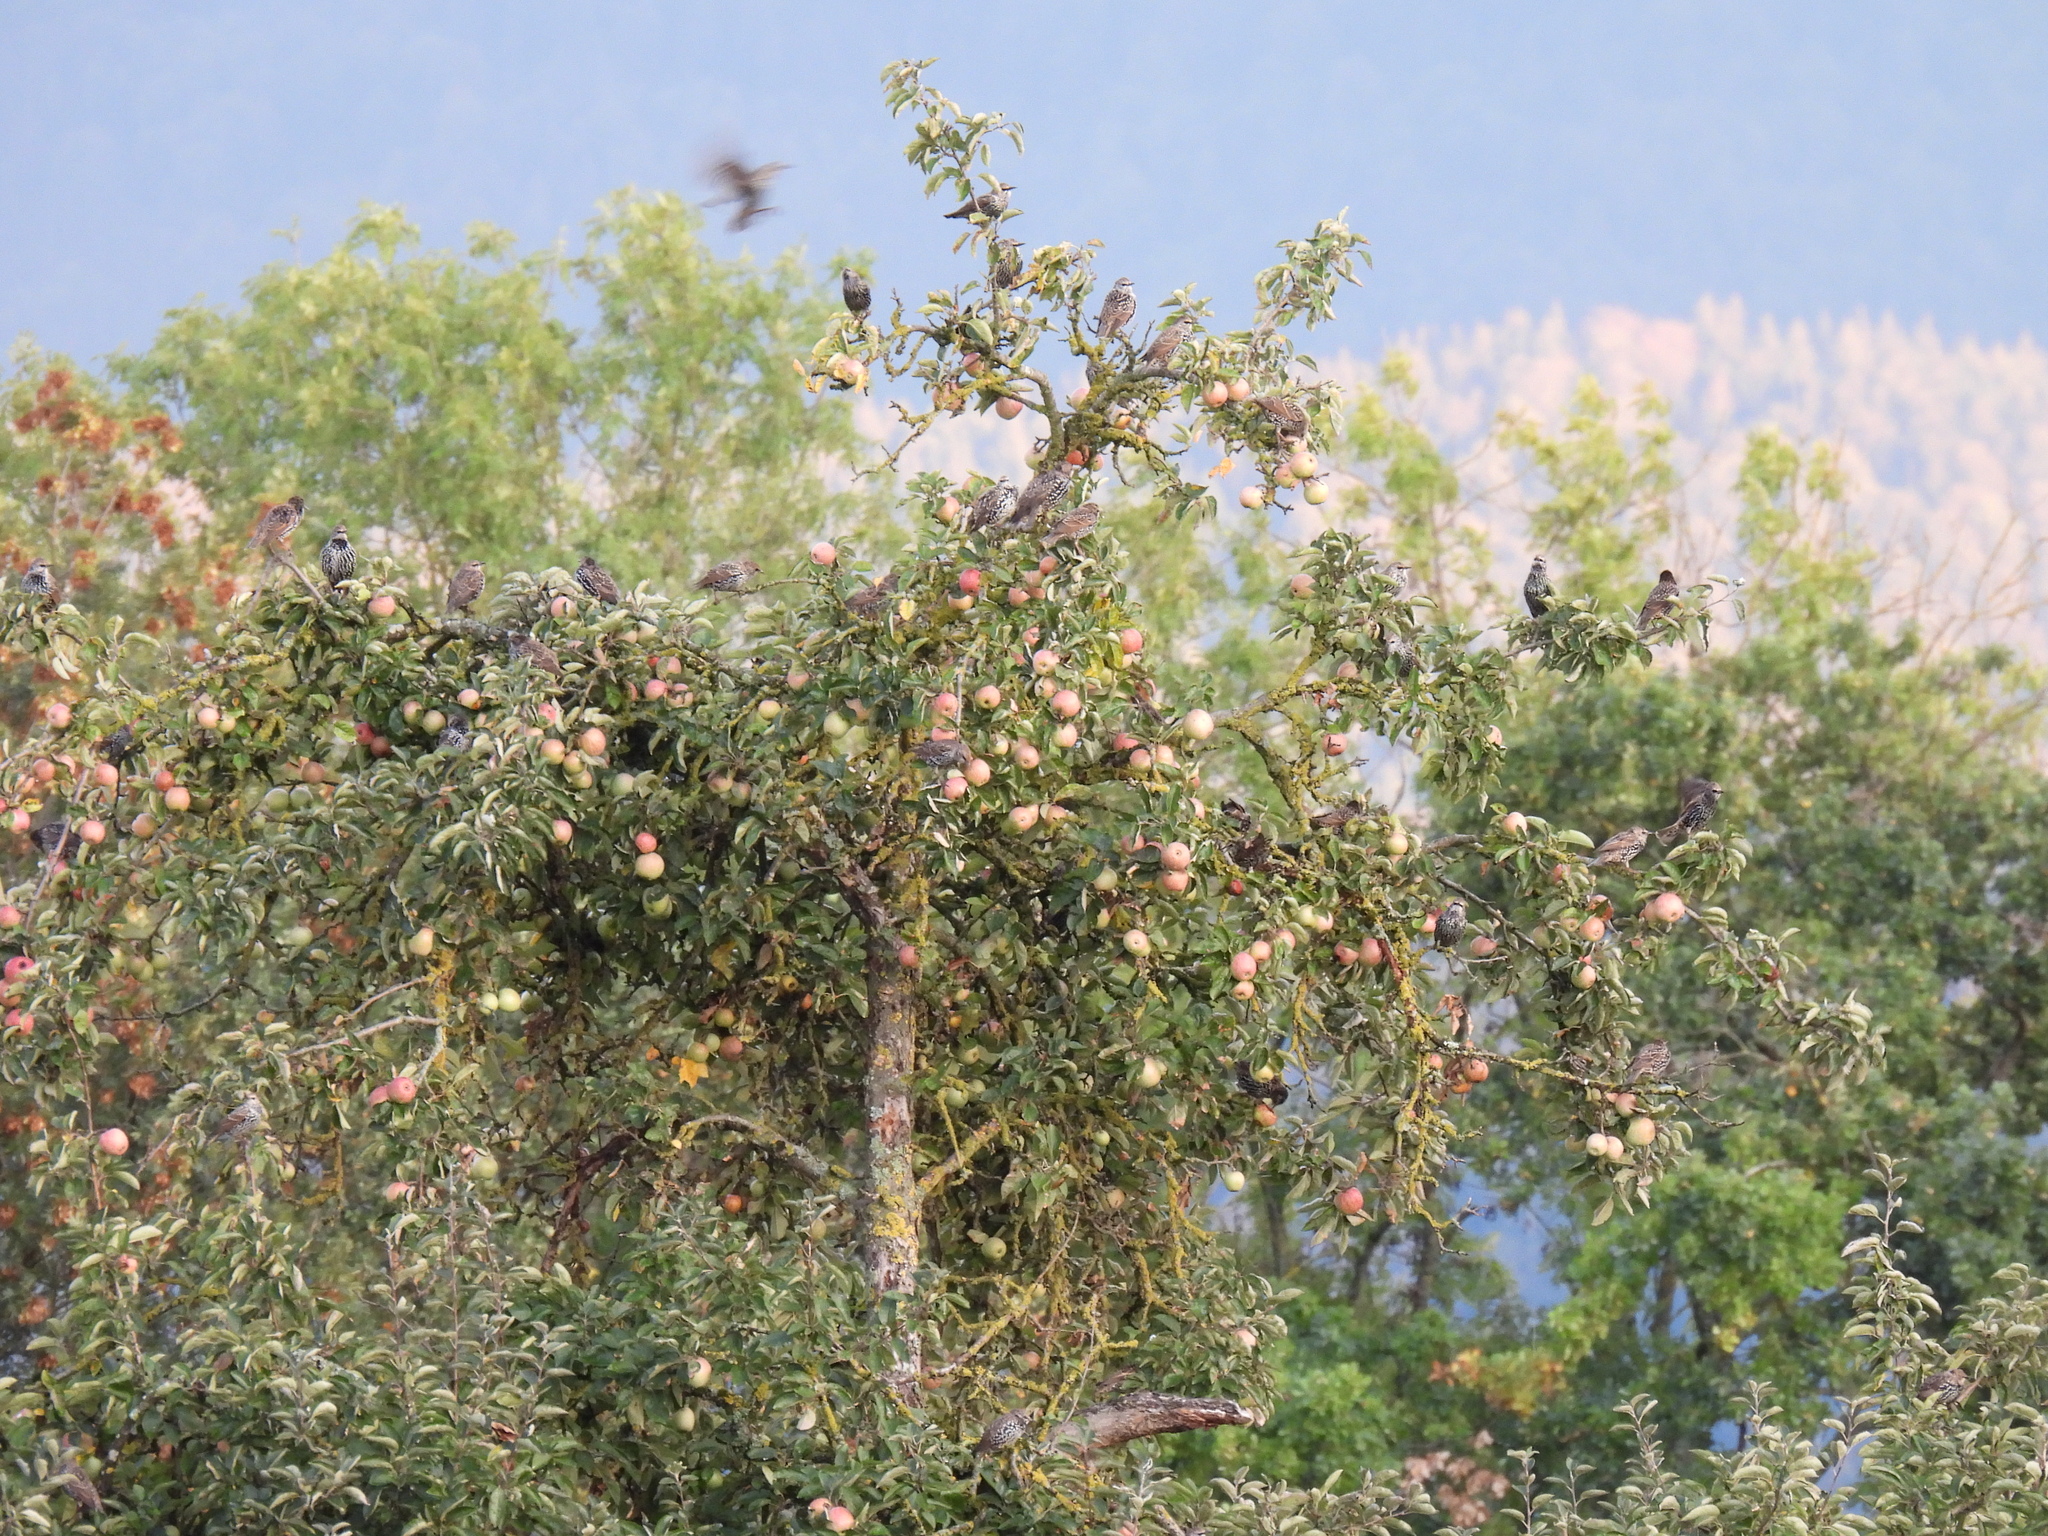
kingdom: Animalia
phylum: Chordata
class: Aves
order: Passeriformes
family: Sturnidae
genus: Sturnus
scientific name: Sturnus vulgaris
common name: Common starling
